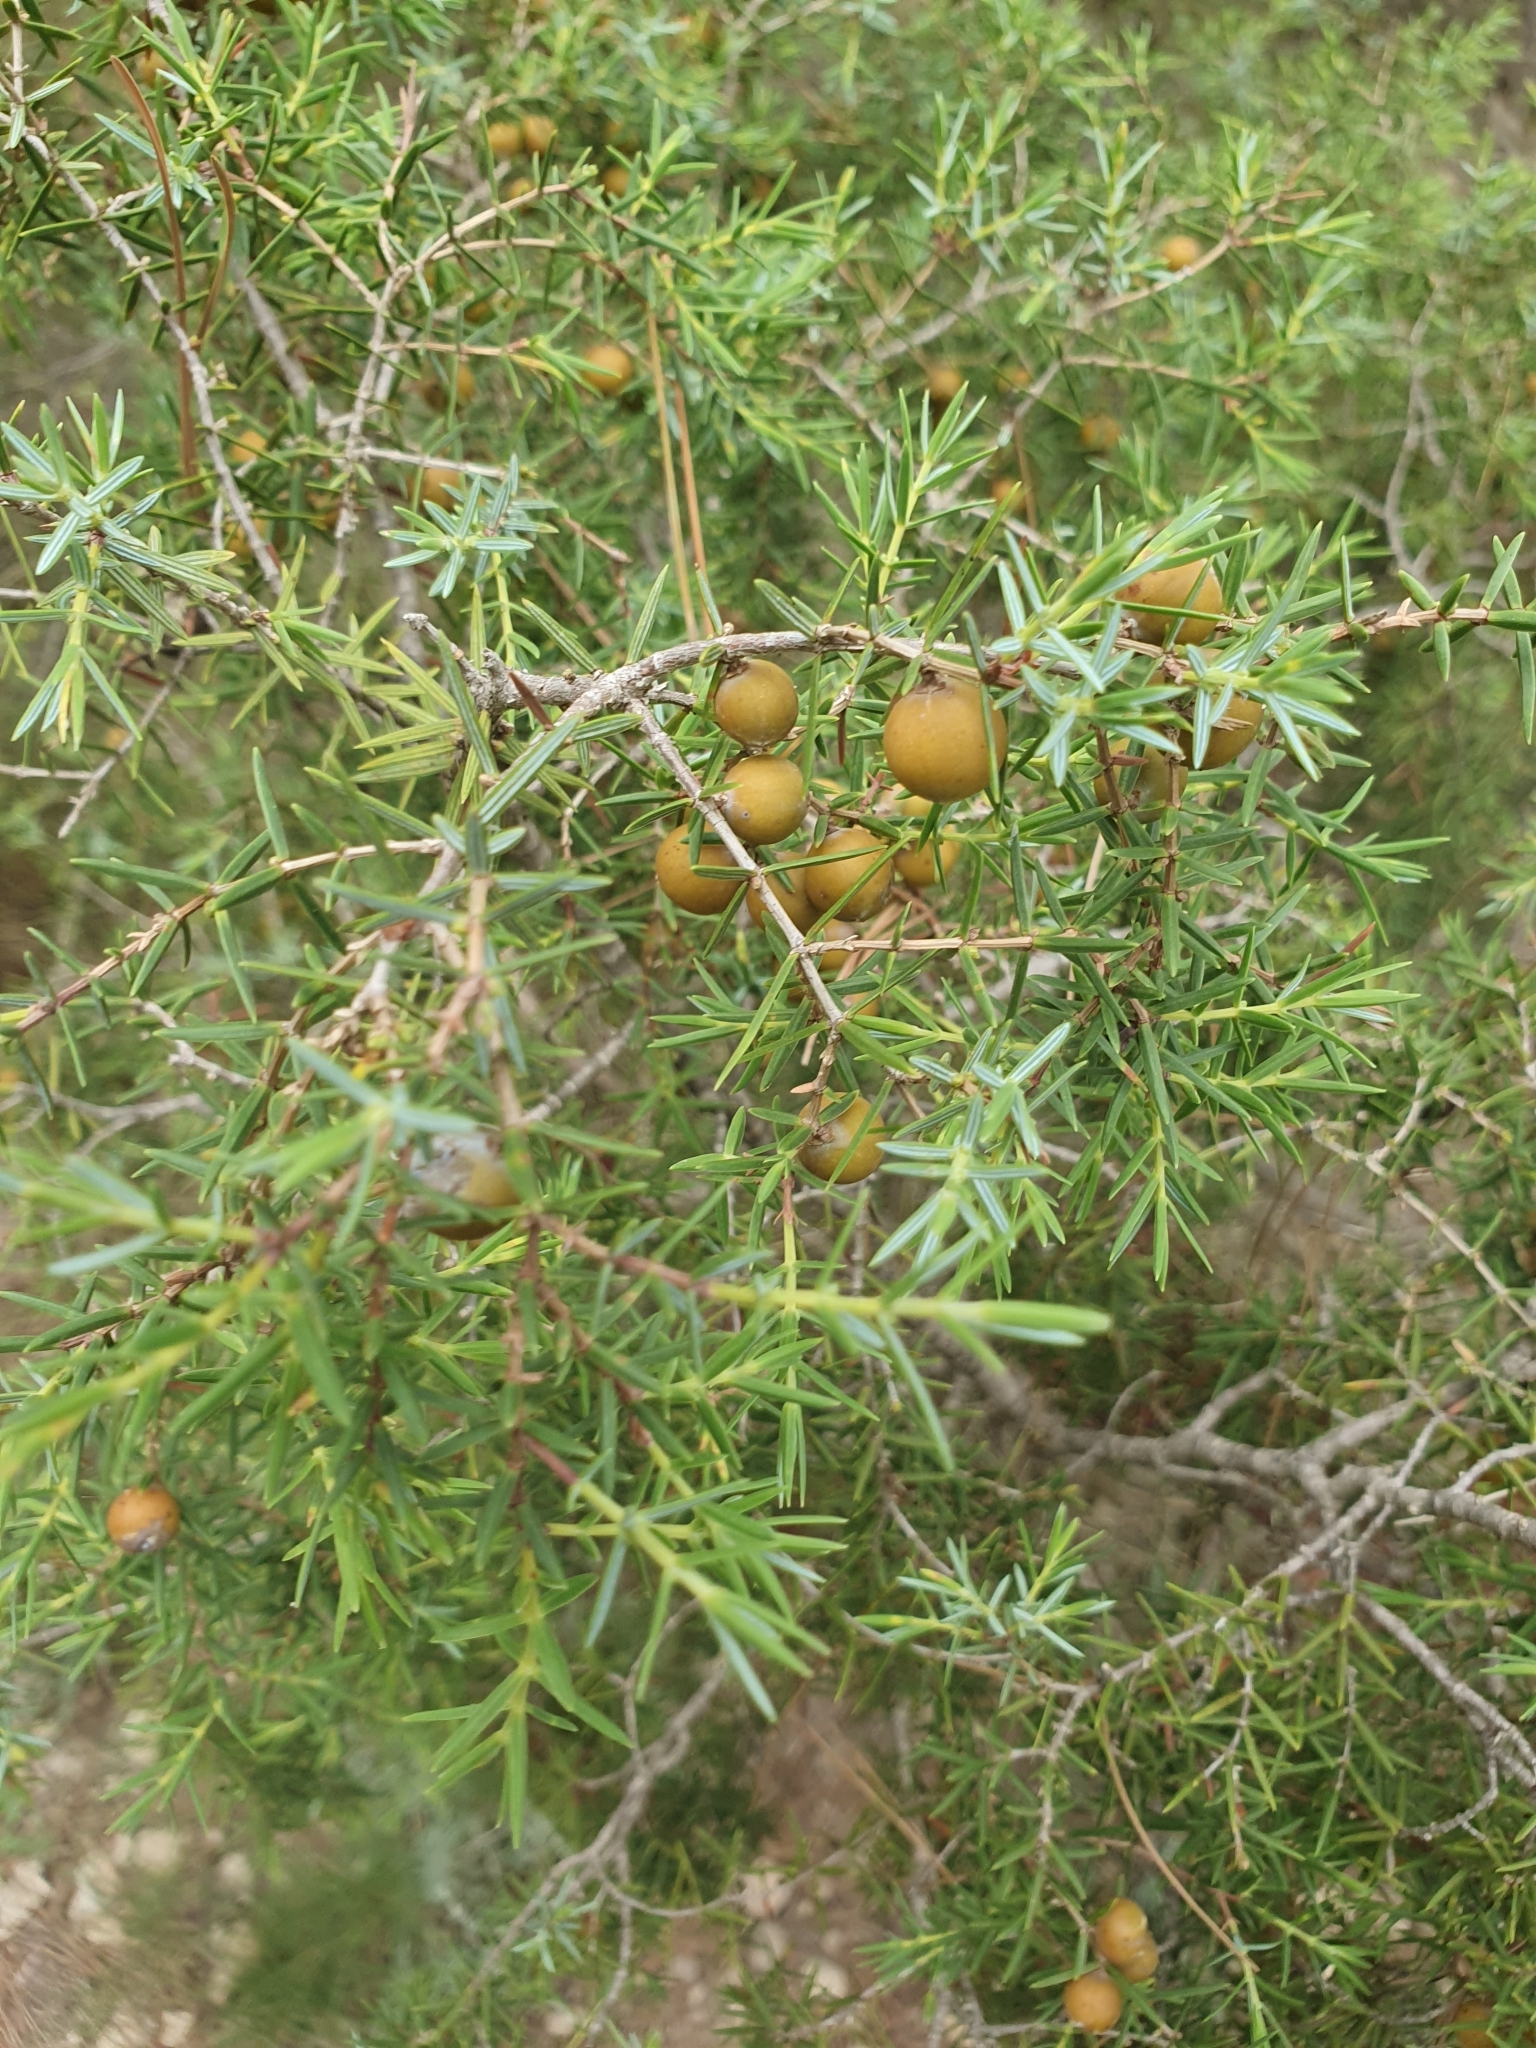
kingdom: Plantae
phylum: Tracheophyta
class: Pinopsida
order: Pinales
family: Cupressaceae
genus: Juniperus
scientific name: Juniperus oxycedrus
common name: Prickly juniper
